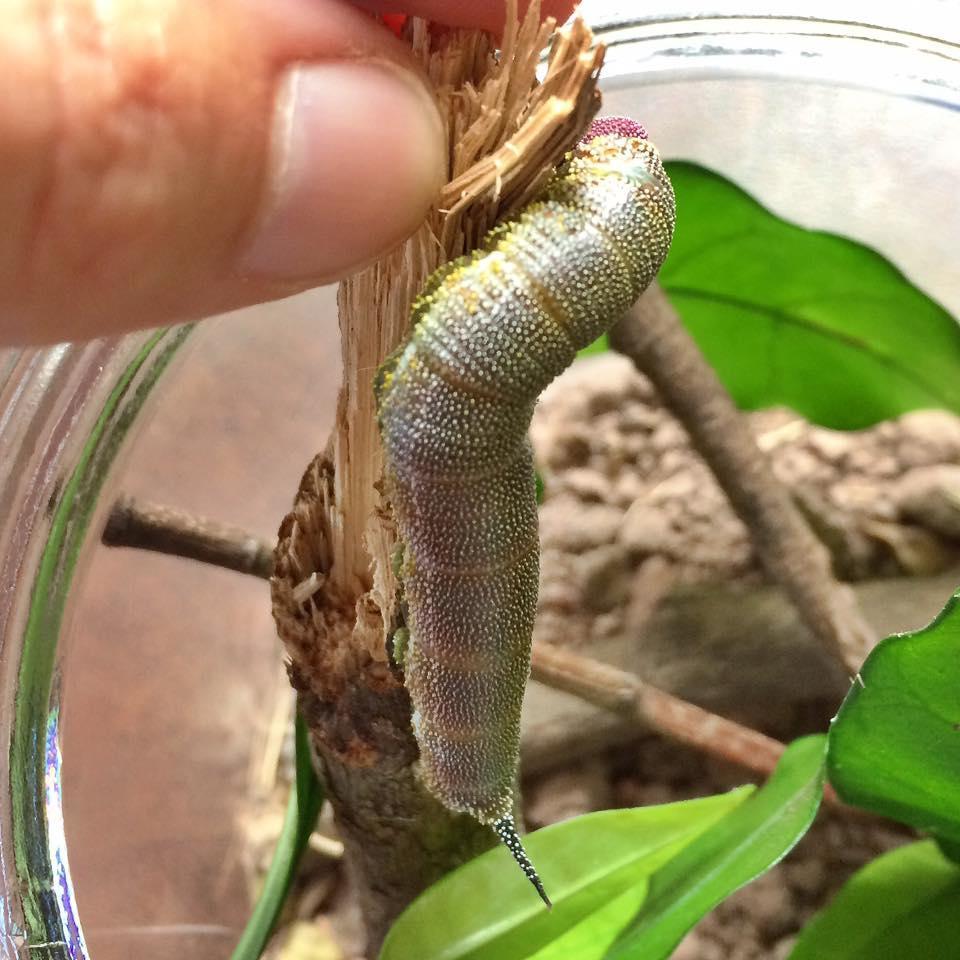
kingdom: Animalia
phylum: Arthropoda
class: Insecta
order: Lepidoptera
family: Sphingidae
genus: Pseudandriasa
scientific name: Pseudandriasa mutata
